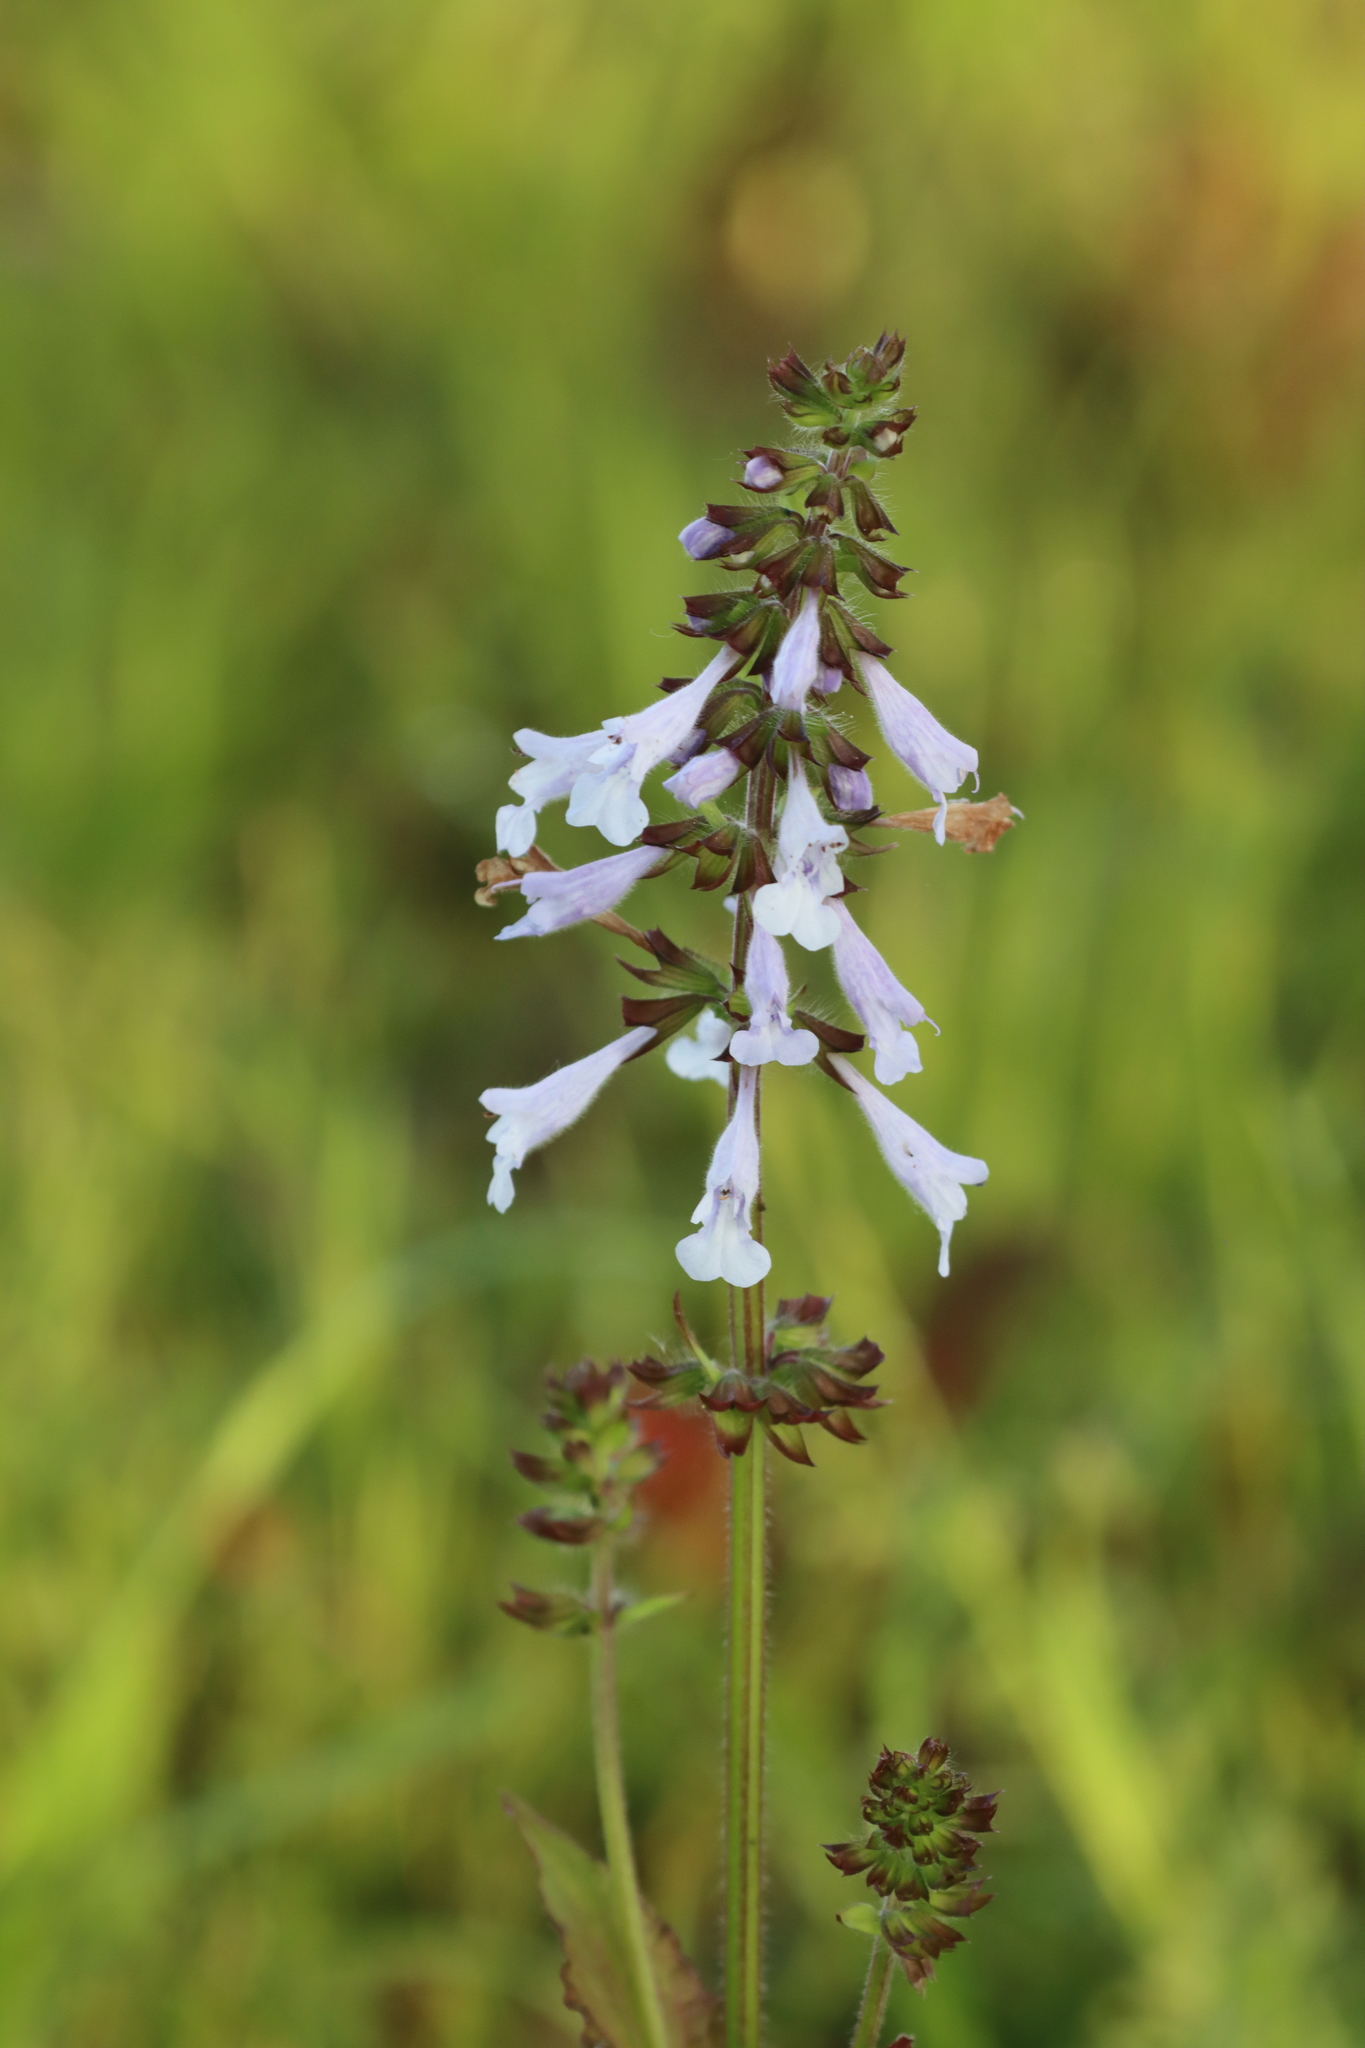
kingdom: Plantae
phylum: Tracheophyta
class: Magnoliopsida
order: Lamiales
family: Lamiaceae
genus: Salvia
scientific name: Salvia lyrata
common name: Cancerweed
